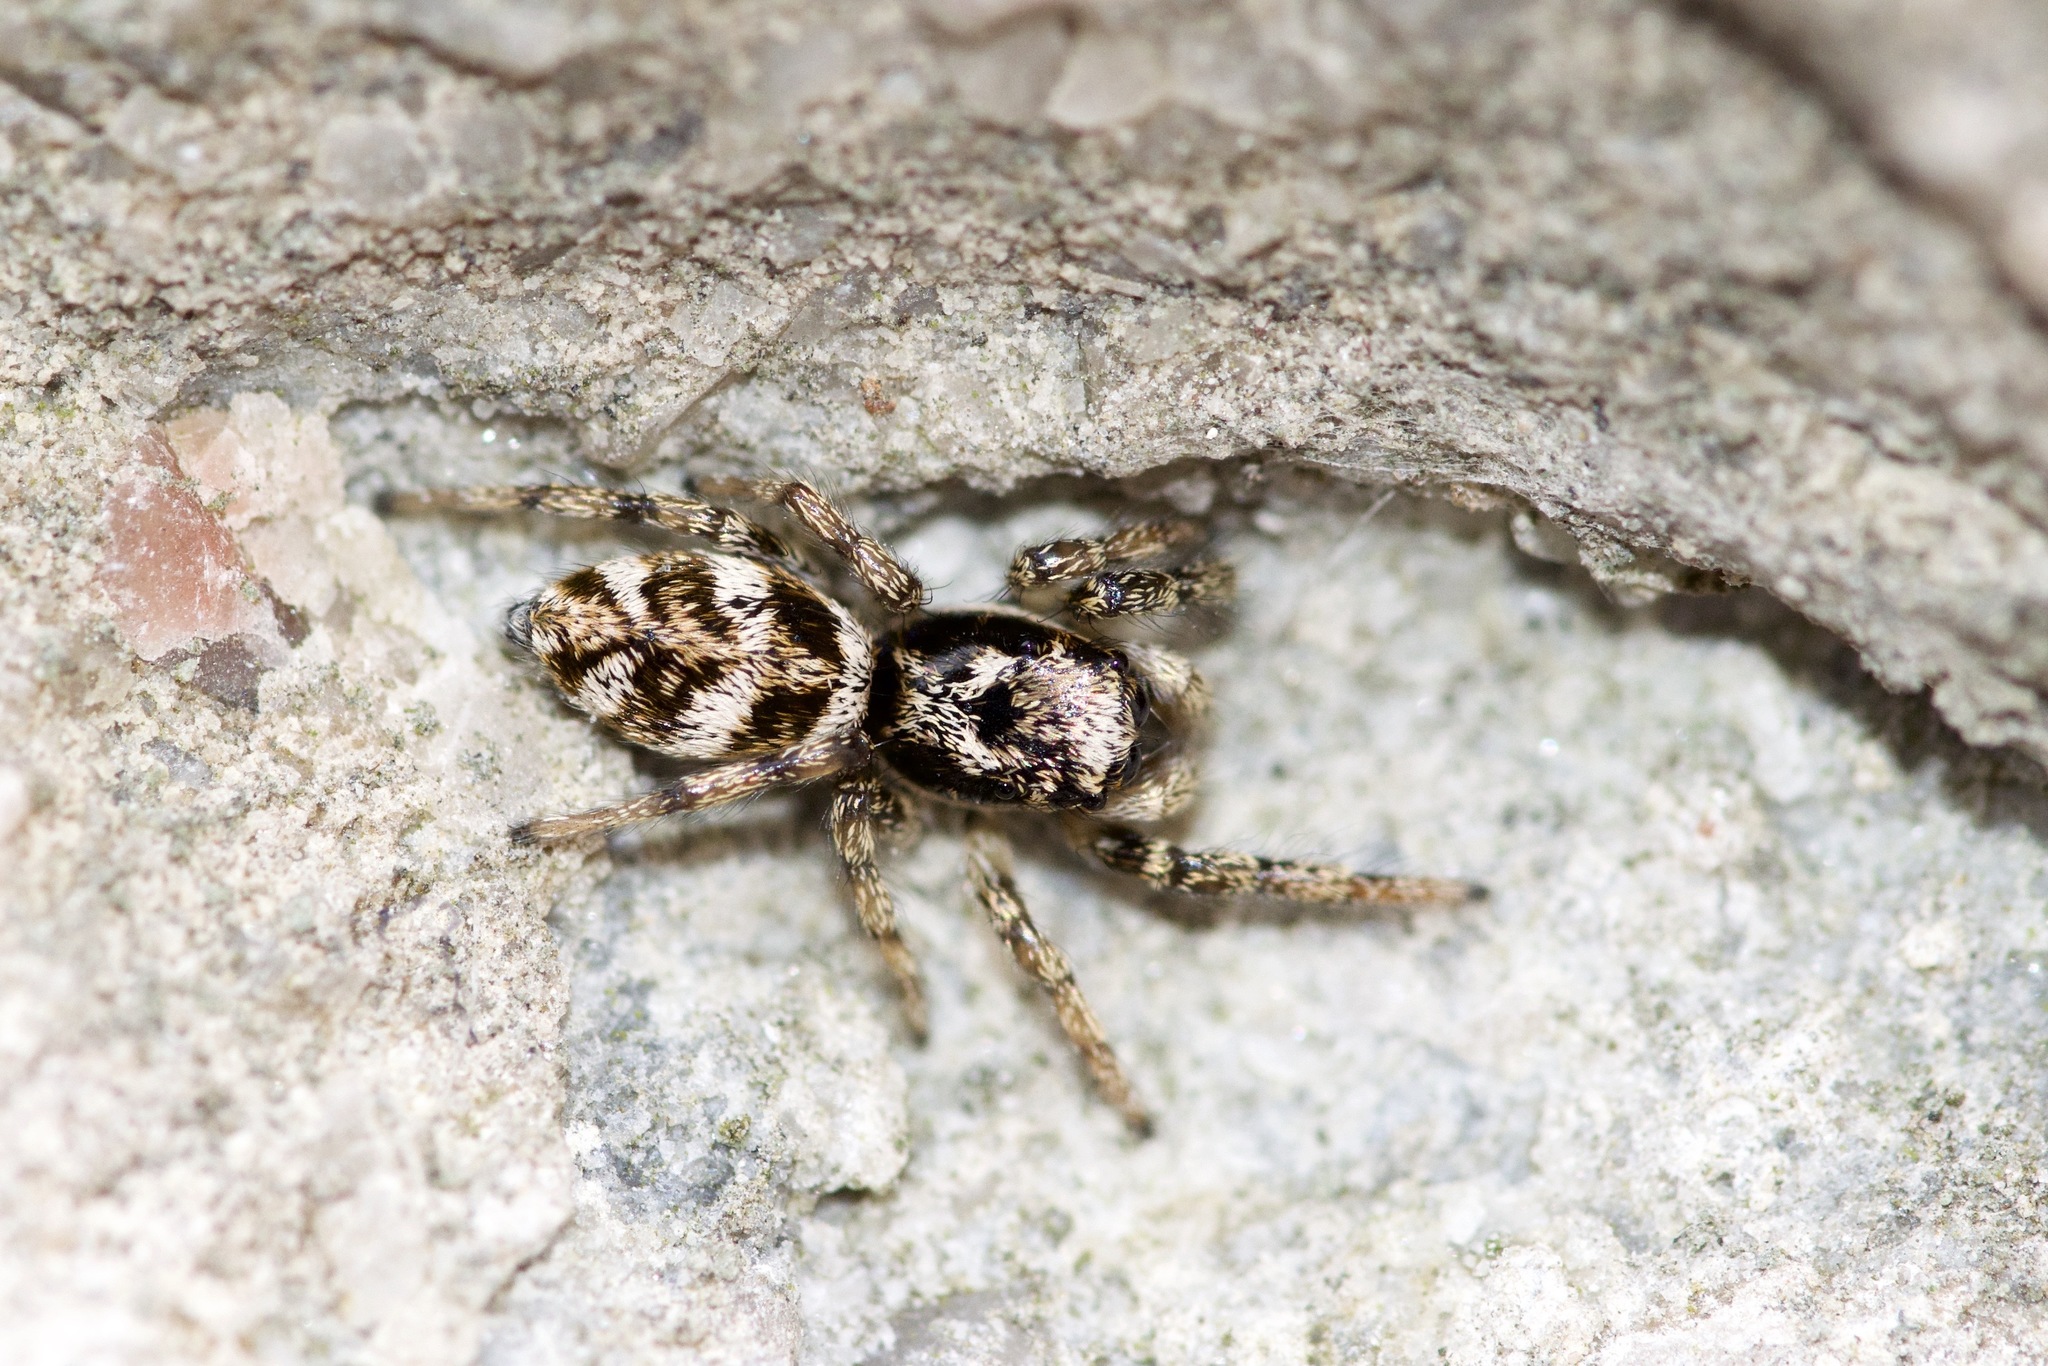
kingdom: Animalia
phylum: Arthropoda
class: Arachnida
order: Araneae
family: Salticidae
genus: Salticus
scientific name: Salticus scenicus
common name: Zebra jumper
